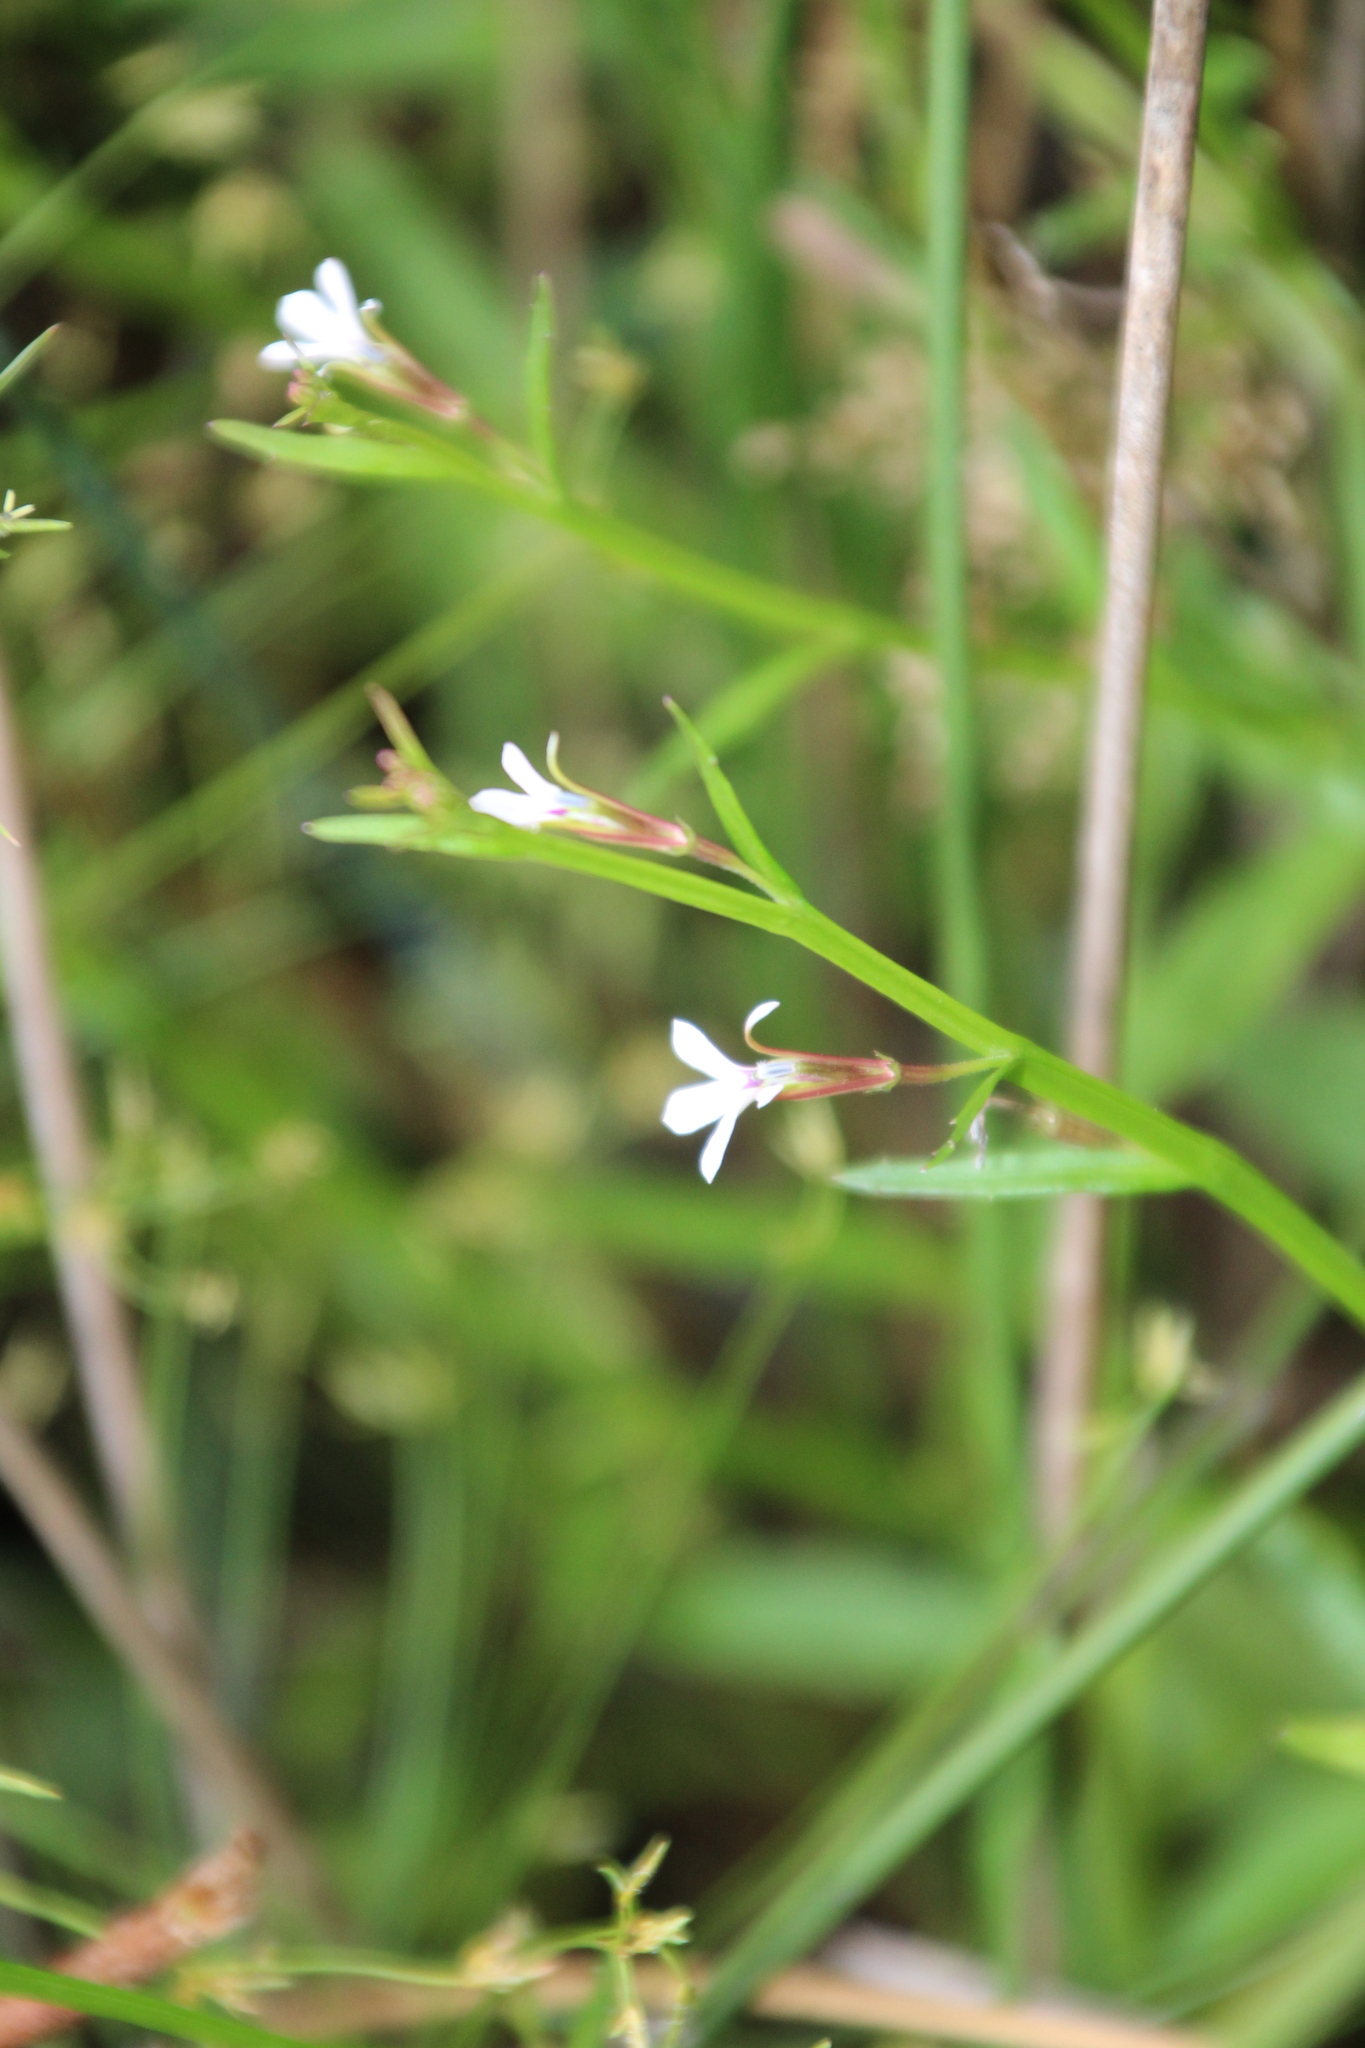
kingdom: Plantae
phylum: Tracheophyta
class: Magnoliopsida
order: Asterales
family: Campanulaceae
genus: Lobelia
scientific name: Lobelia anceps
